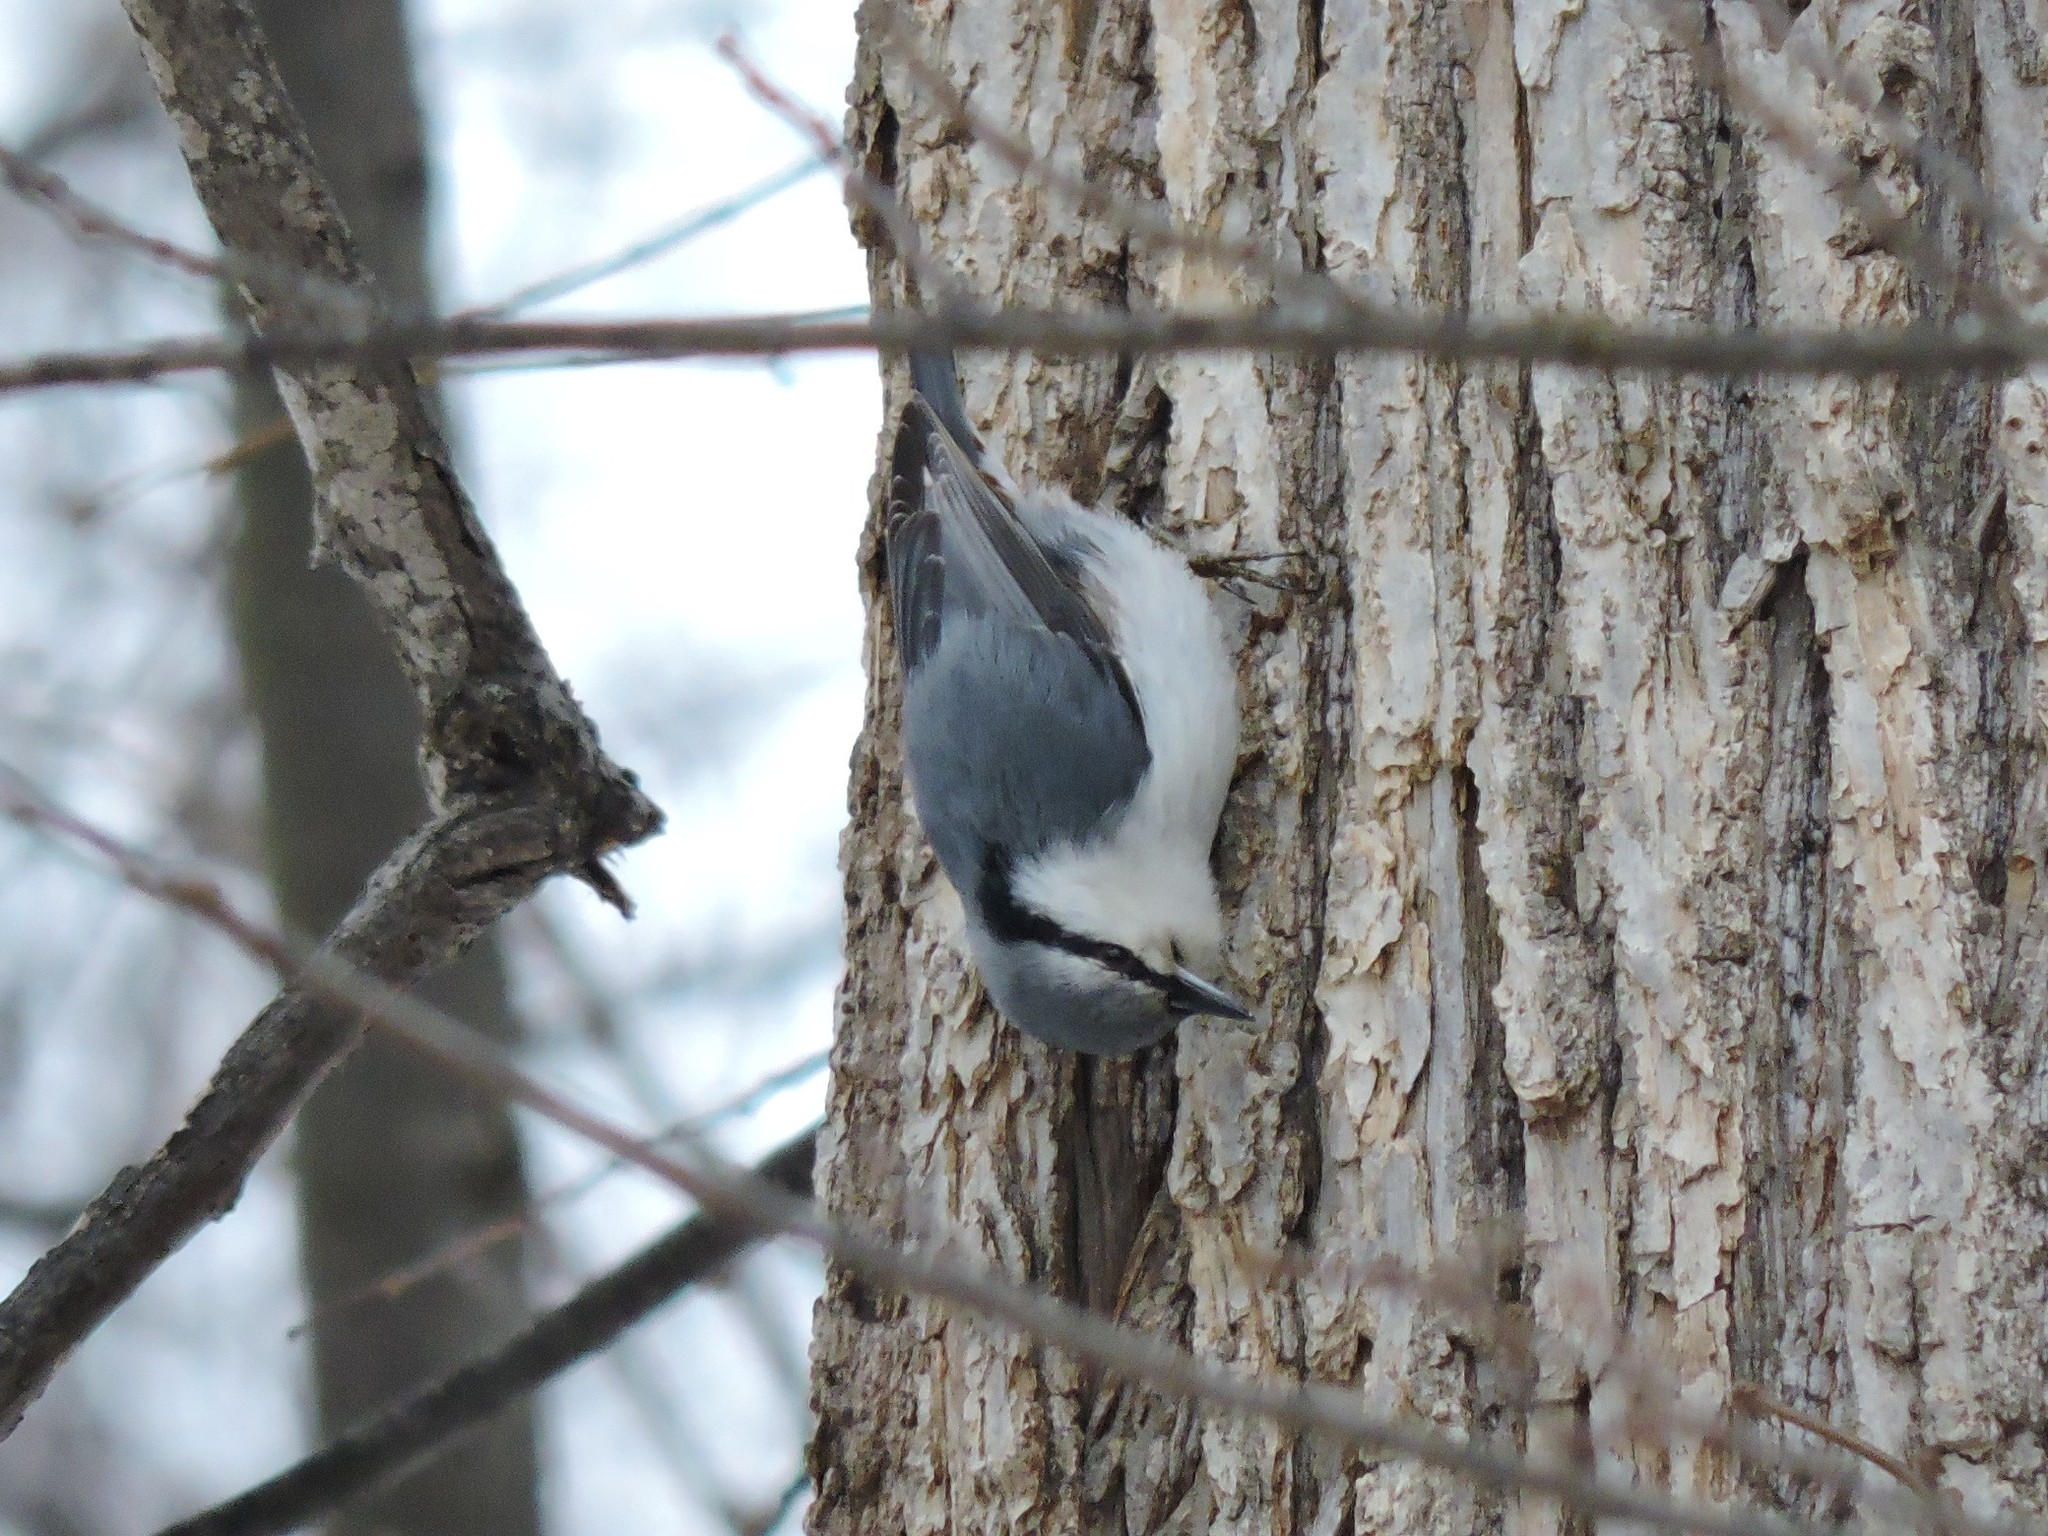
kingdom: Animalia
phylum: Chordata
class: Aves
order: Passeriformes
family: Sittidae
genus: Sitta
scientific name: Sitta europaea
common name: Eurasian nuthatch
